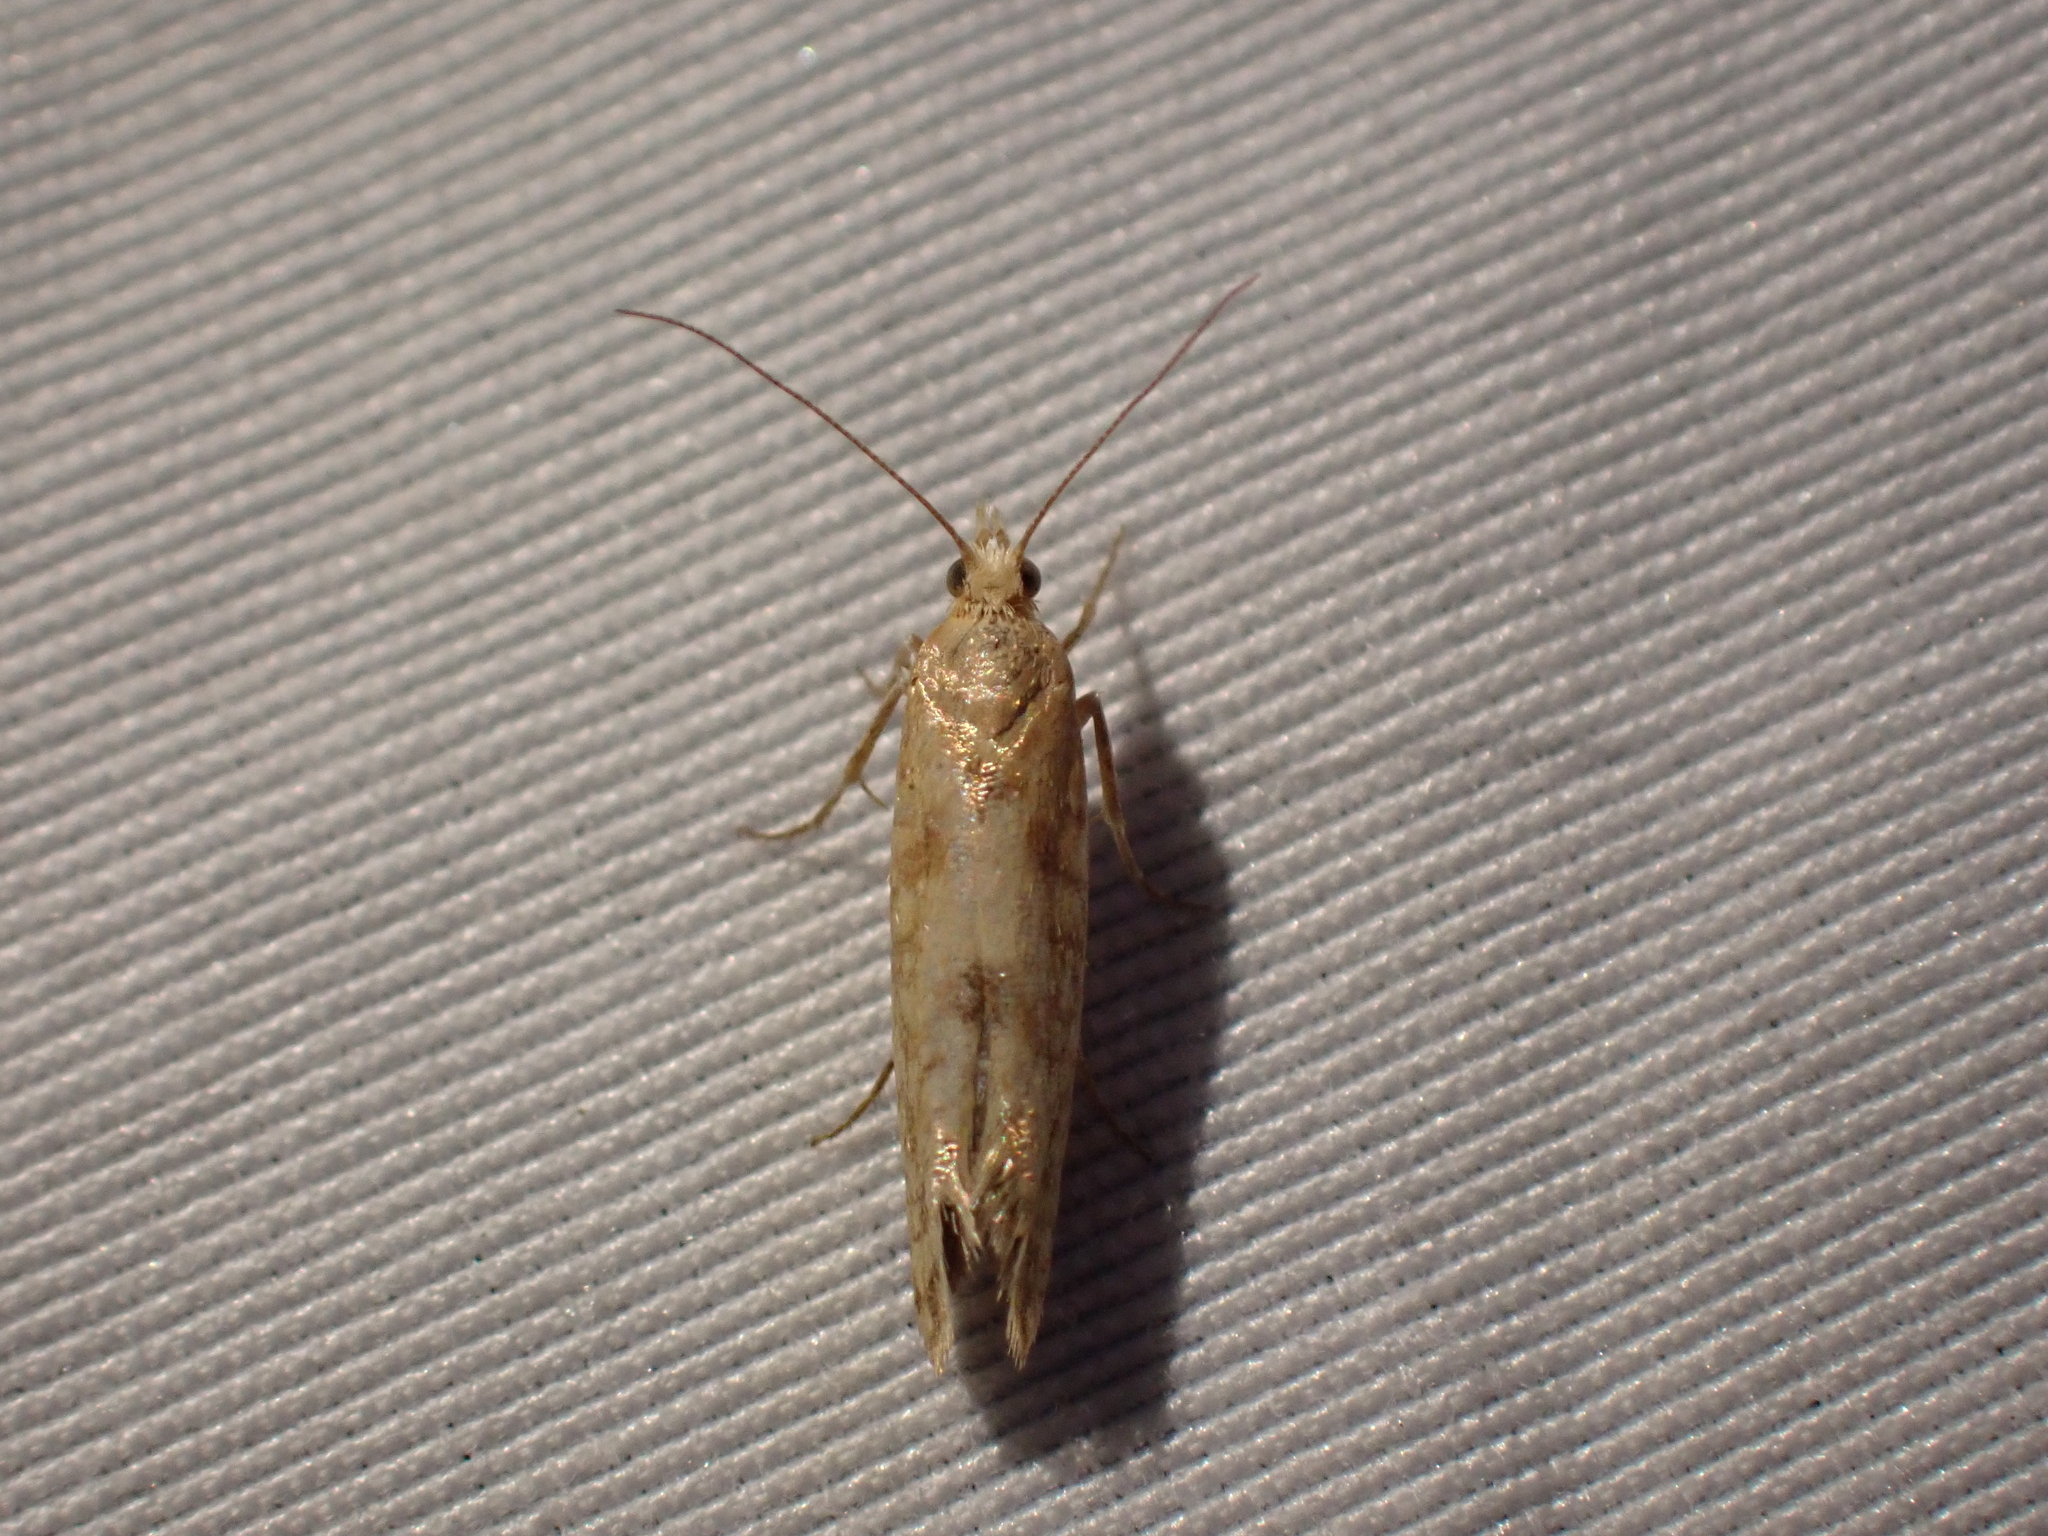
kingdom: Animalia
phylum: Arthropoda
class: Insecta
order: Lepidoptera
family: Ypsolophidae
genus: Ypsolopha
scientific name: Ypsolopha cervella
